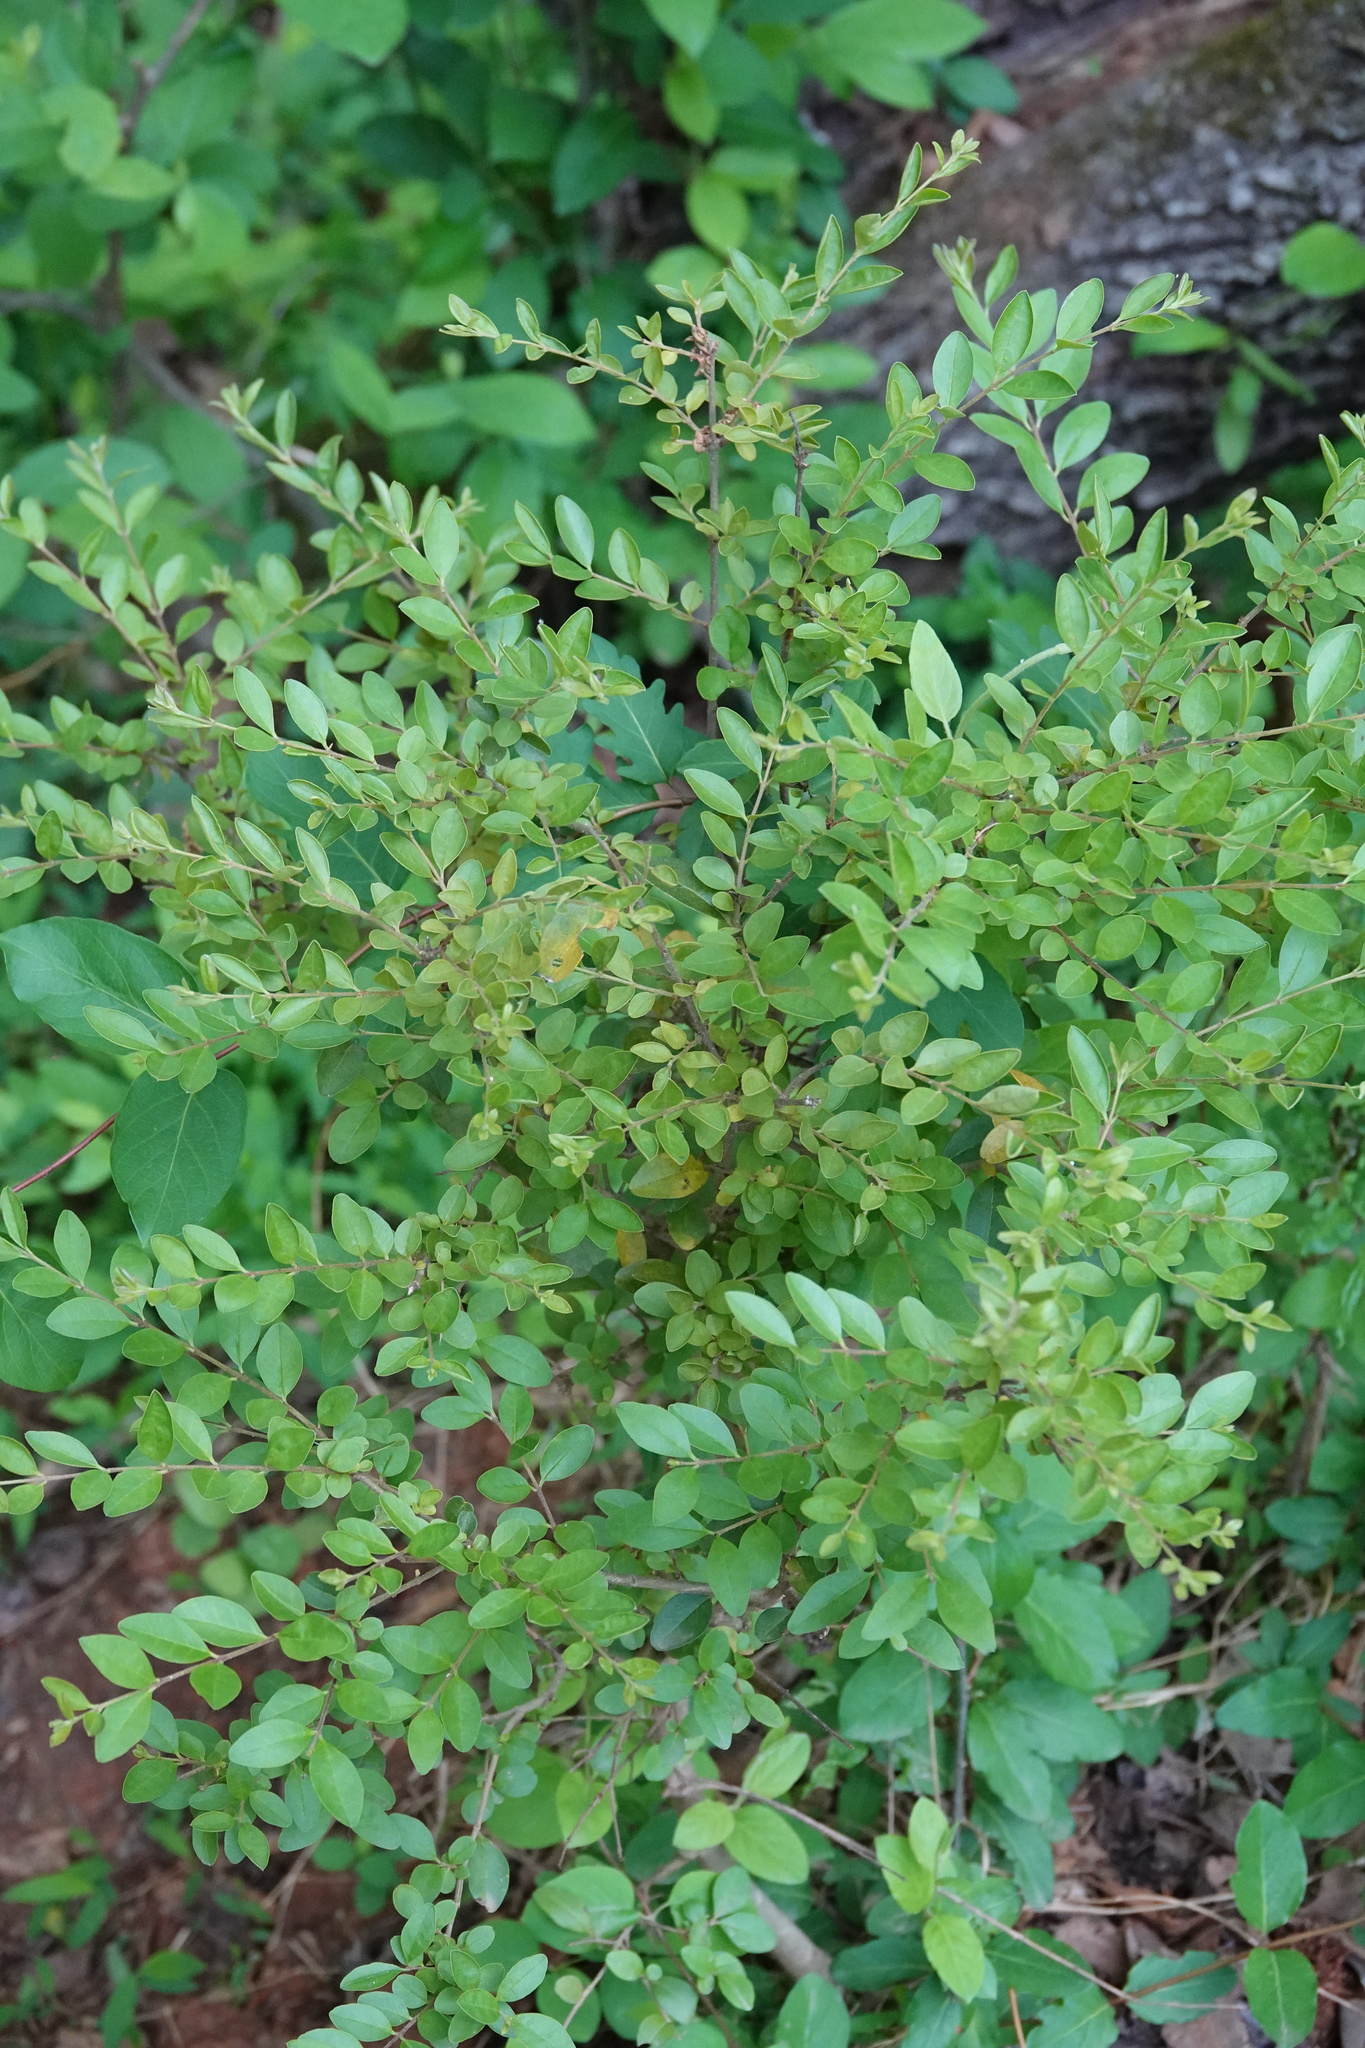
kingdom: Plantae
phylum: Tracheophyta
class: Magnoliopsida
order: Lamiales
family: Oleaceae
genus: Ligustrum
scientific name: Ligustrum
